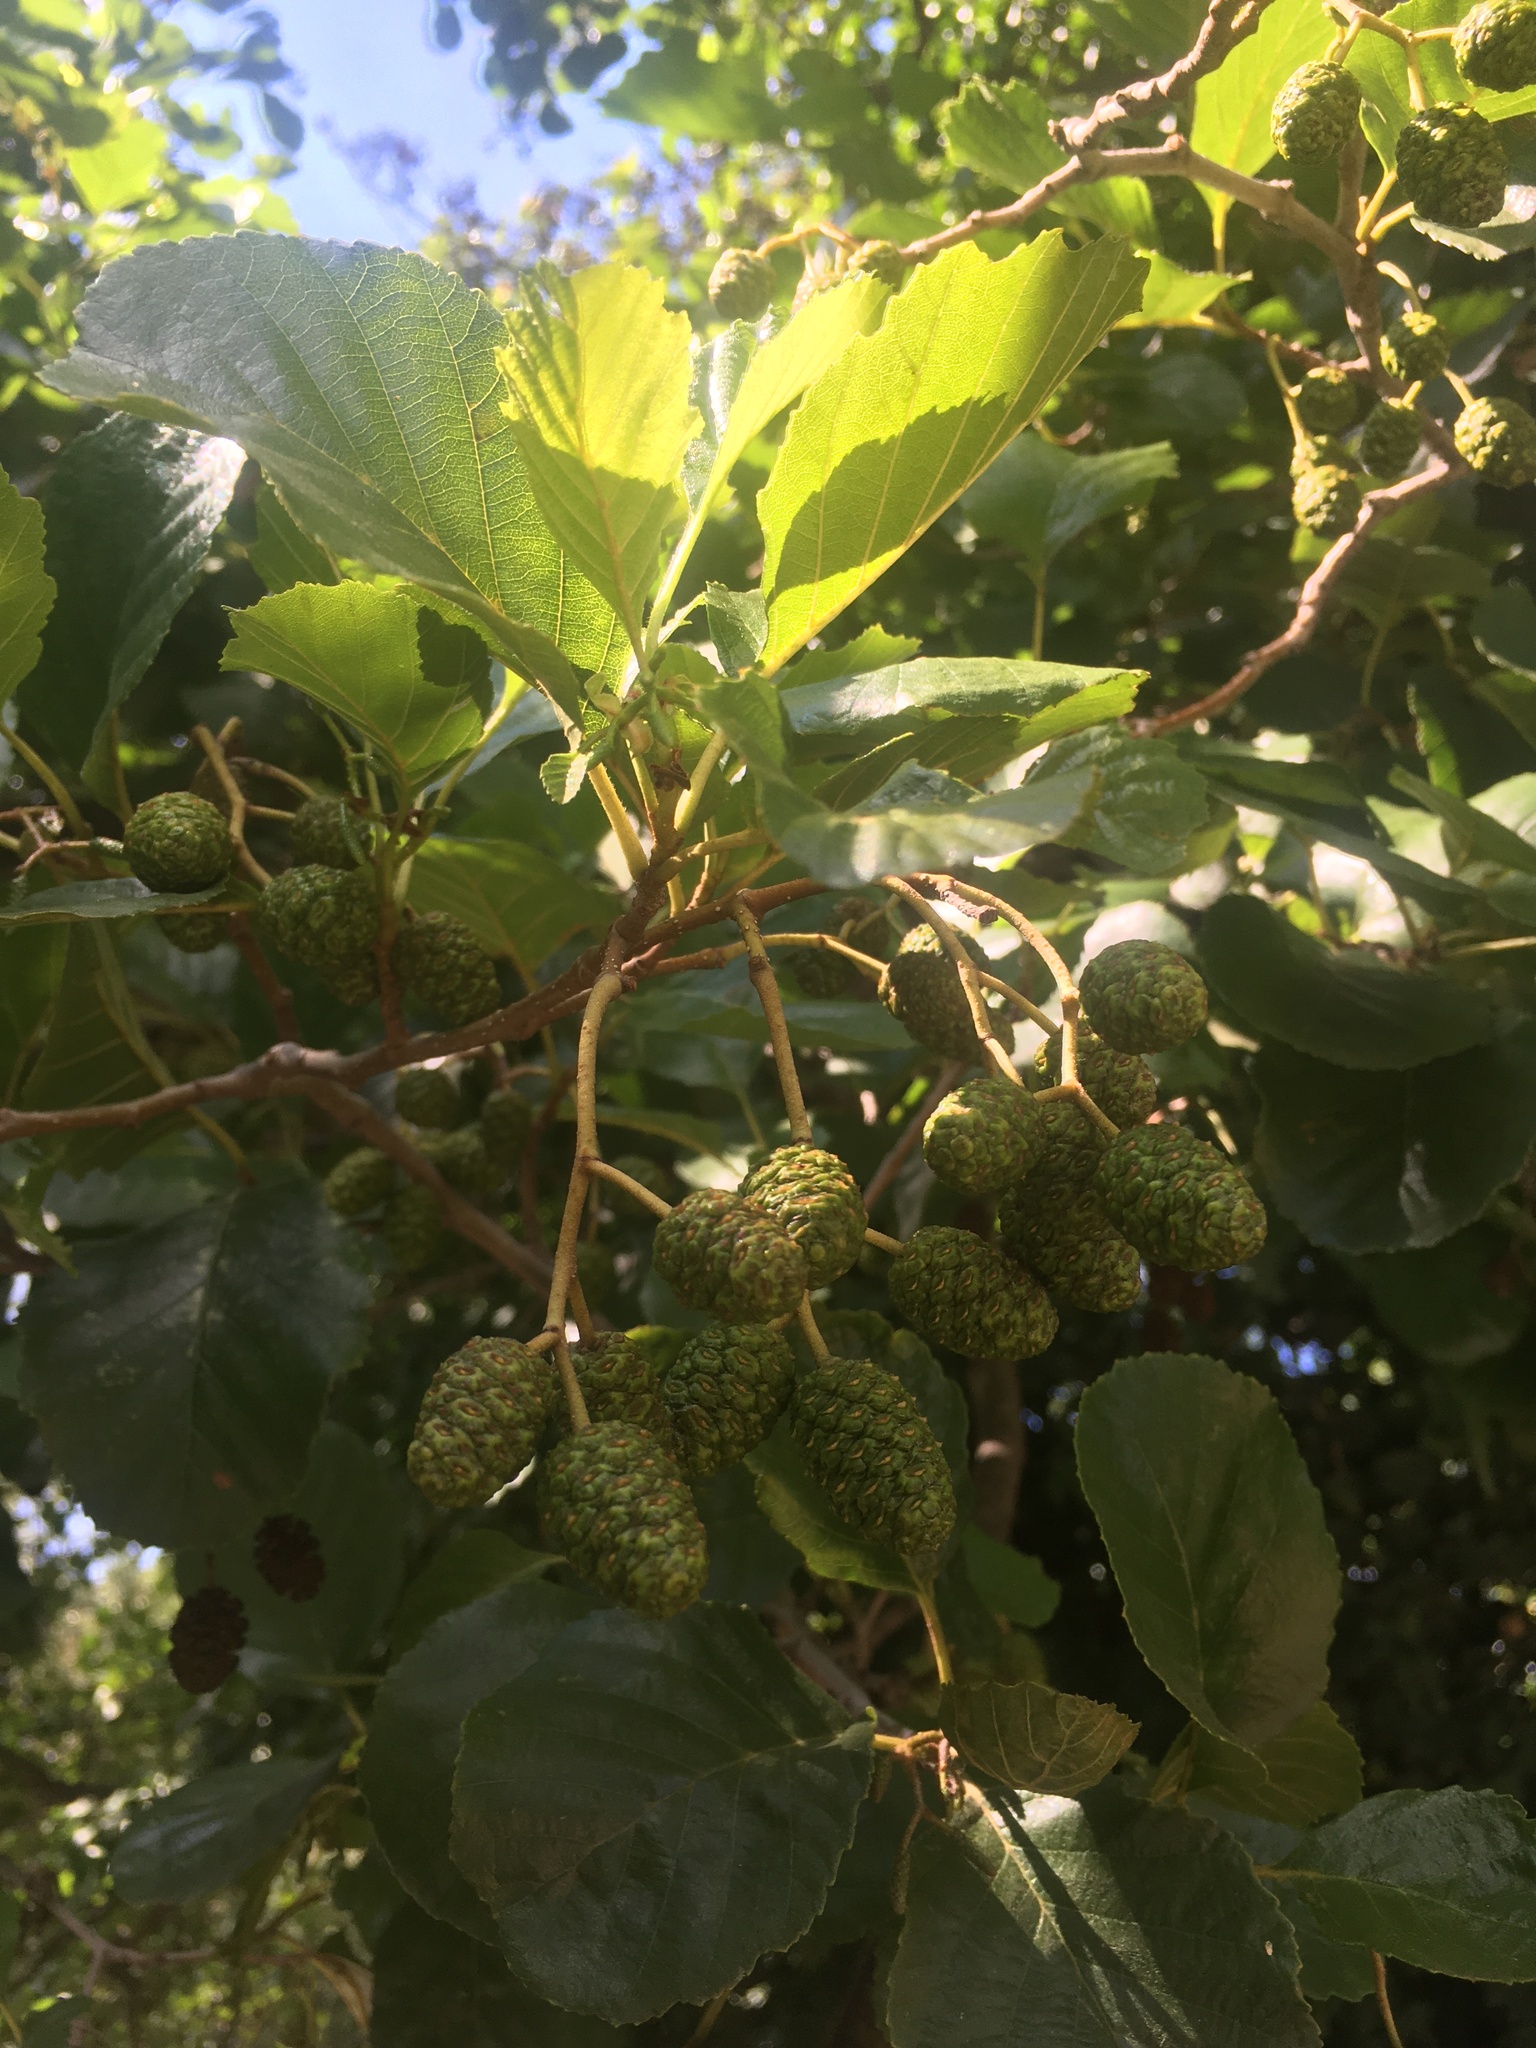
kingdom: Plantae
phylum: Tracheophyta
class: Magnoliopsida
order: Fagales
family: Betulaceae
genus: Alnus
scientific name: Alnus glutinosa
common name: Black alder
